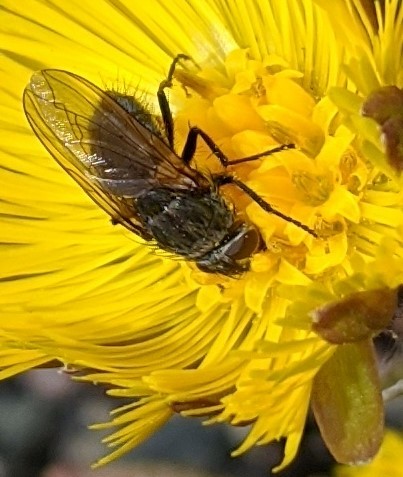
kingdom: Animalia
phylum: Arthropoda
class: Insecta
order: Diptera
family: Polleniidae
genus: Pollenia
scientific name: Pollenia
